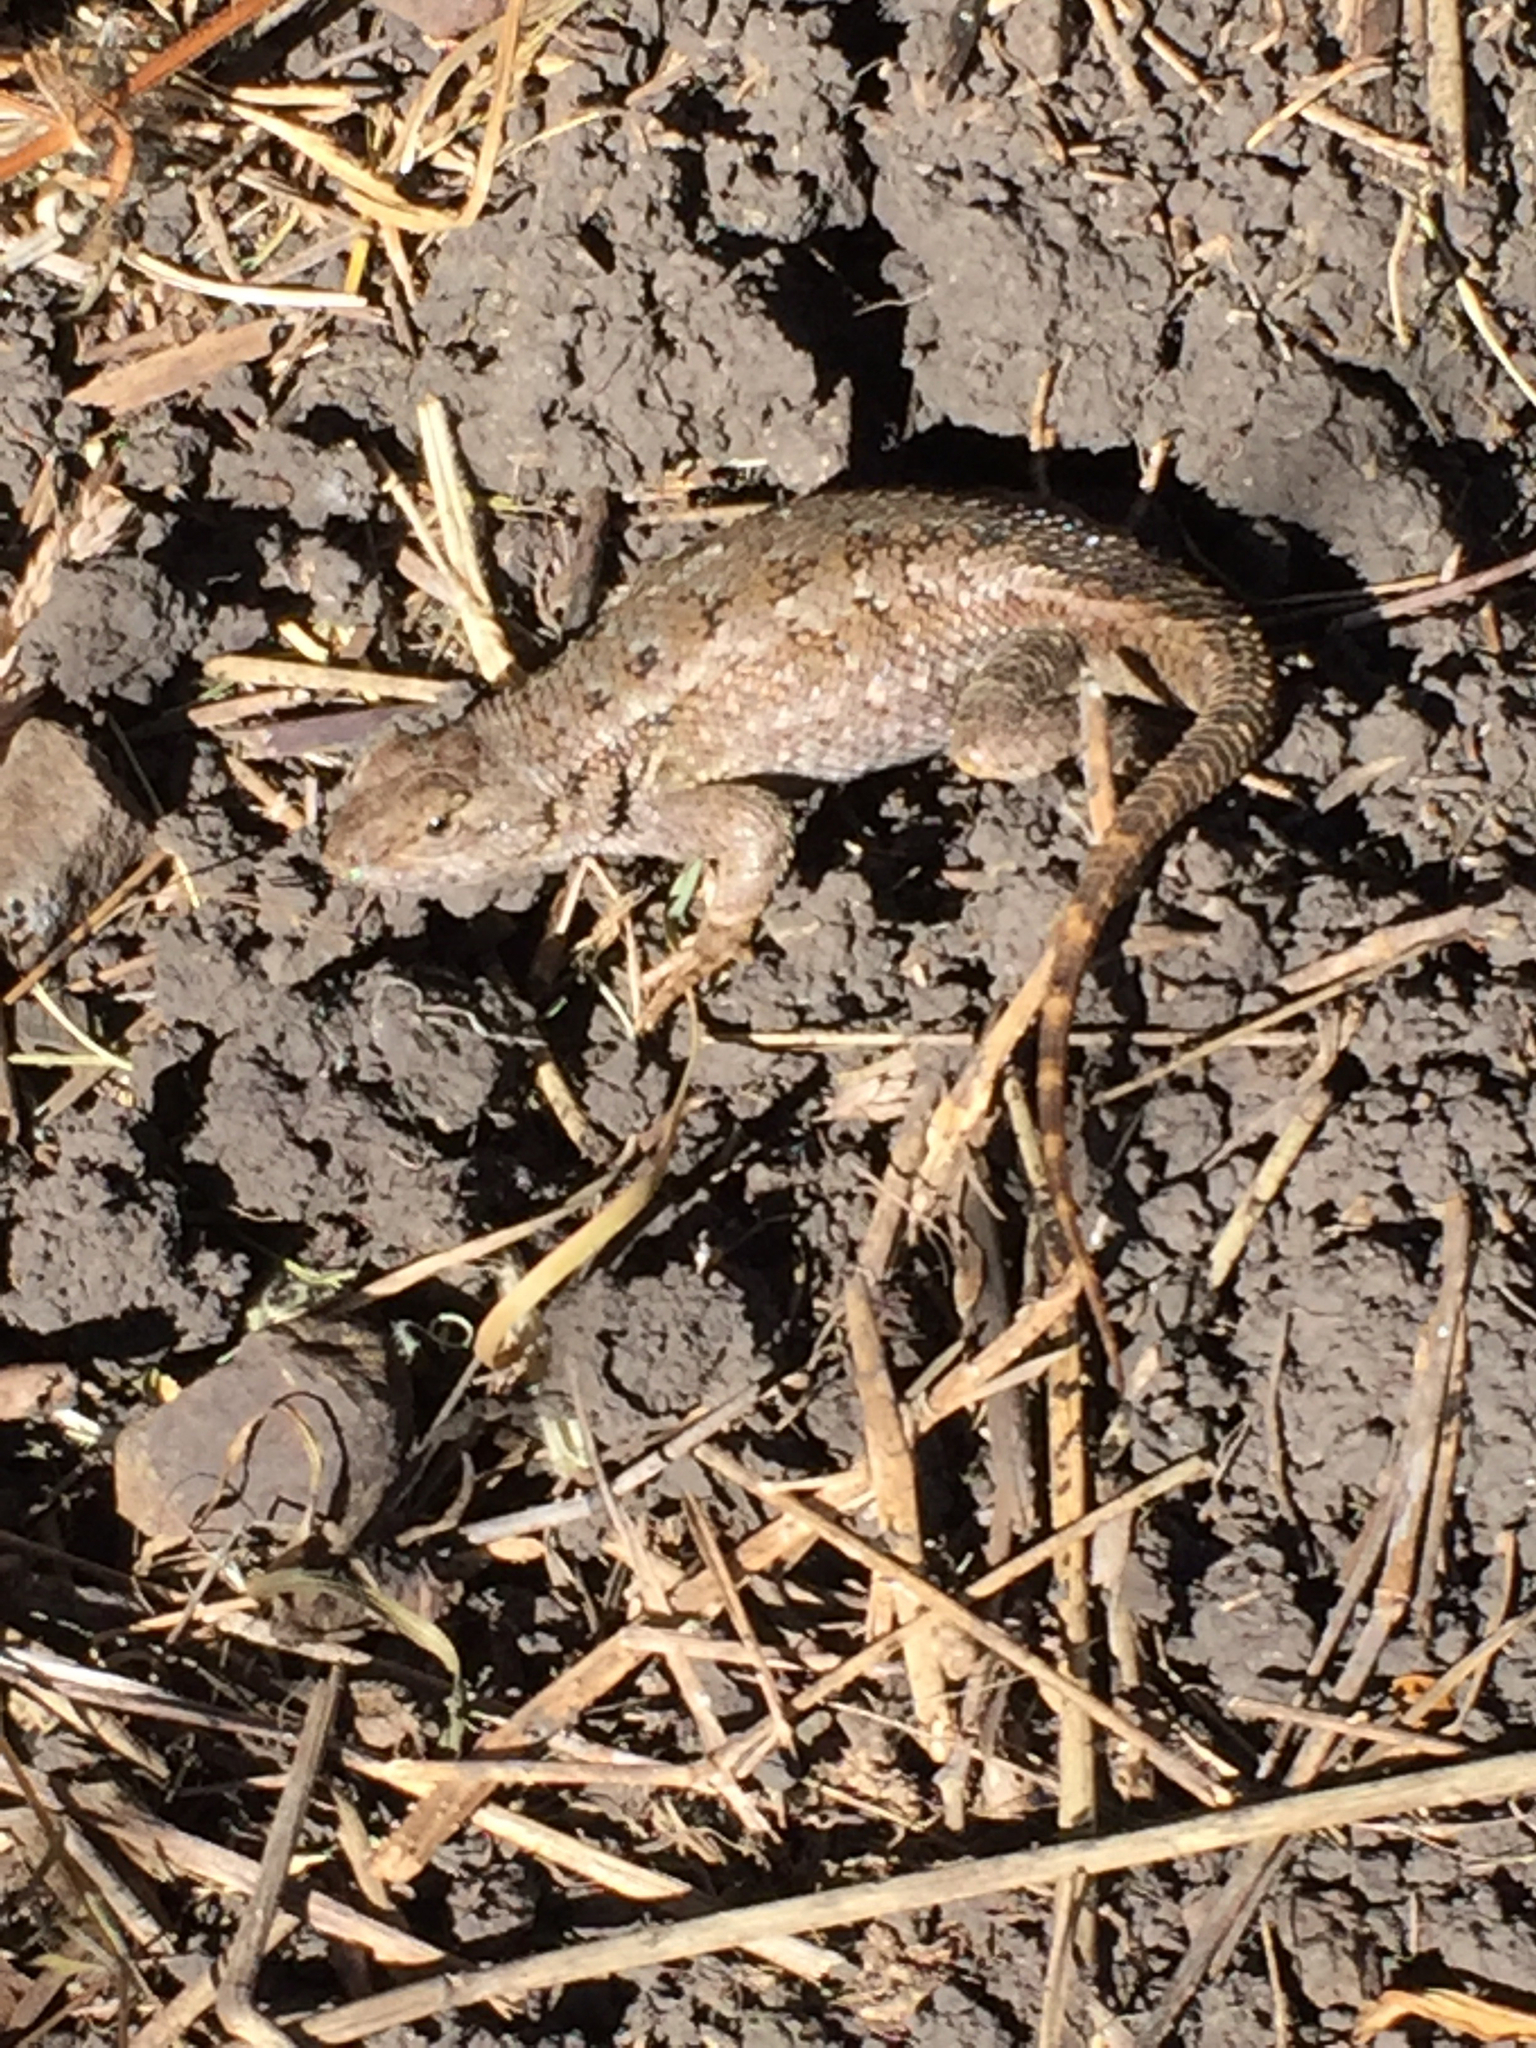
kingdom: Animalia
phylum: Chordata
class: Squamata
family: Phrynosomatidae
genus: Sceloporus
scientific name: Sceloporus occidentalis
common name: Western fence lizard
